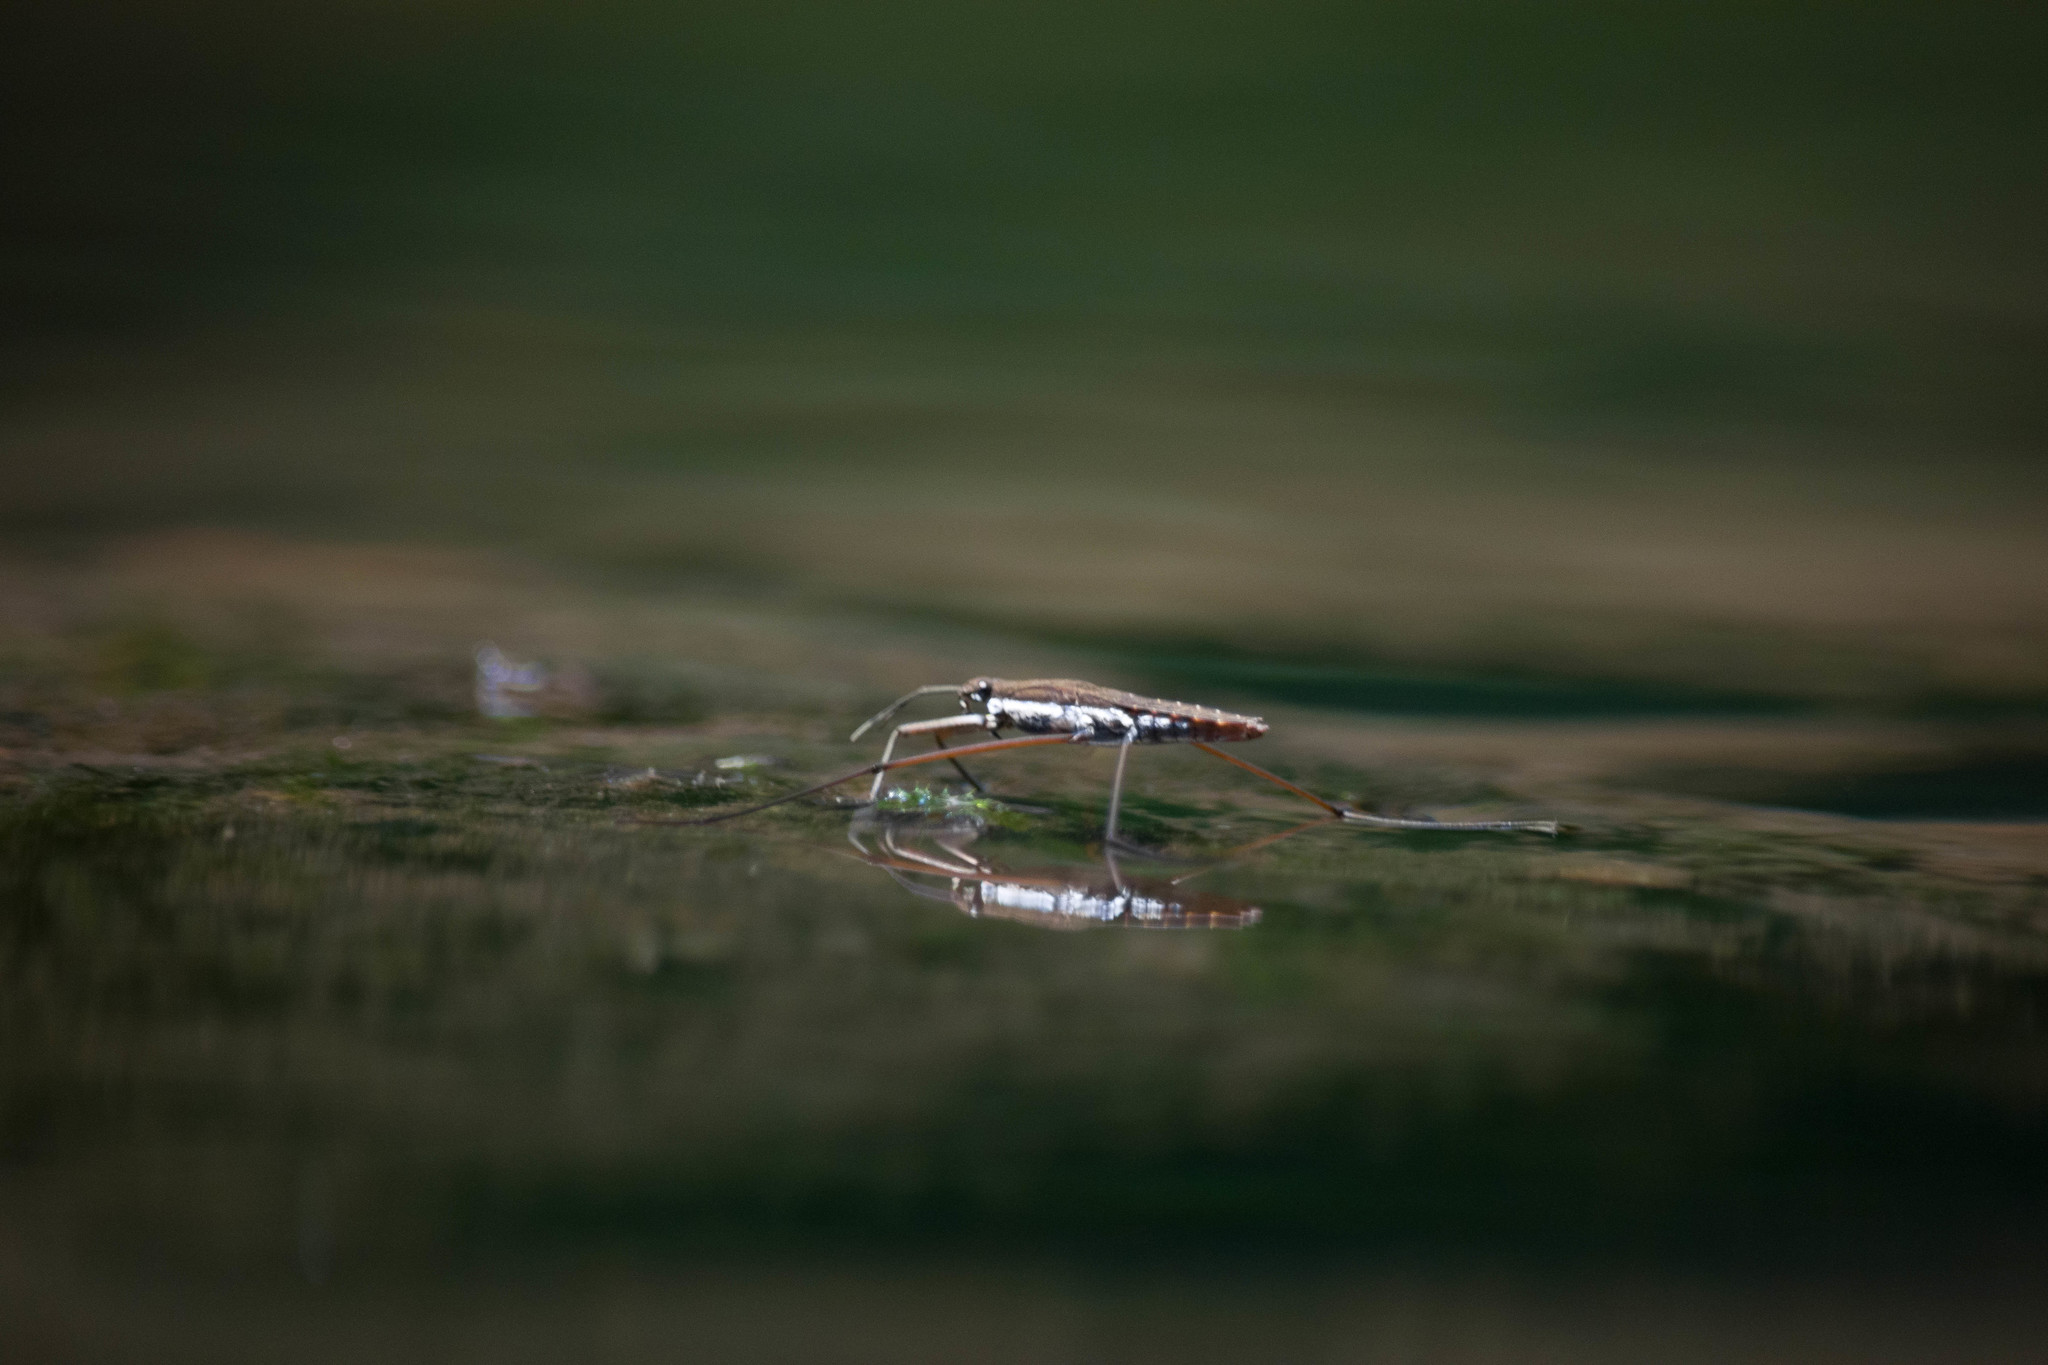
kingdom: Animalia
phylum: Arthropoda
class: Insecta
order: Hemiptera
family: Gerridae
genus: Aquarius
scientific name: Aquarius remigis
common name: Common water strider
